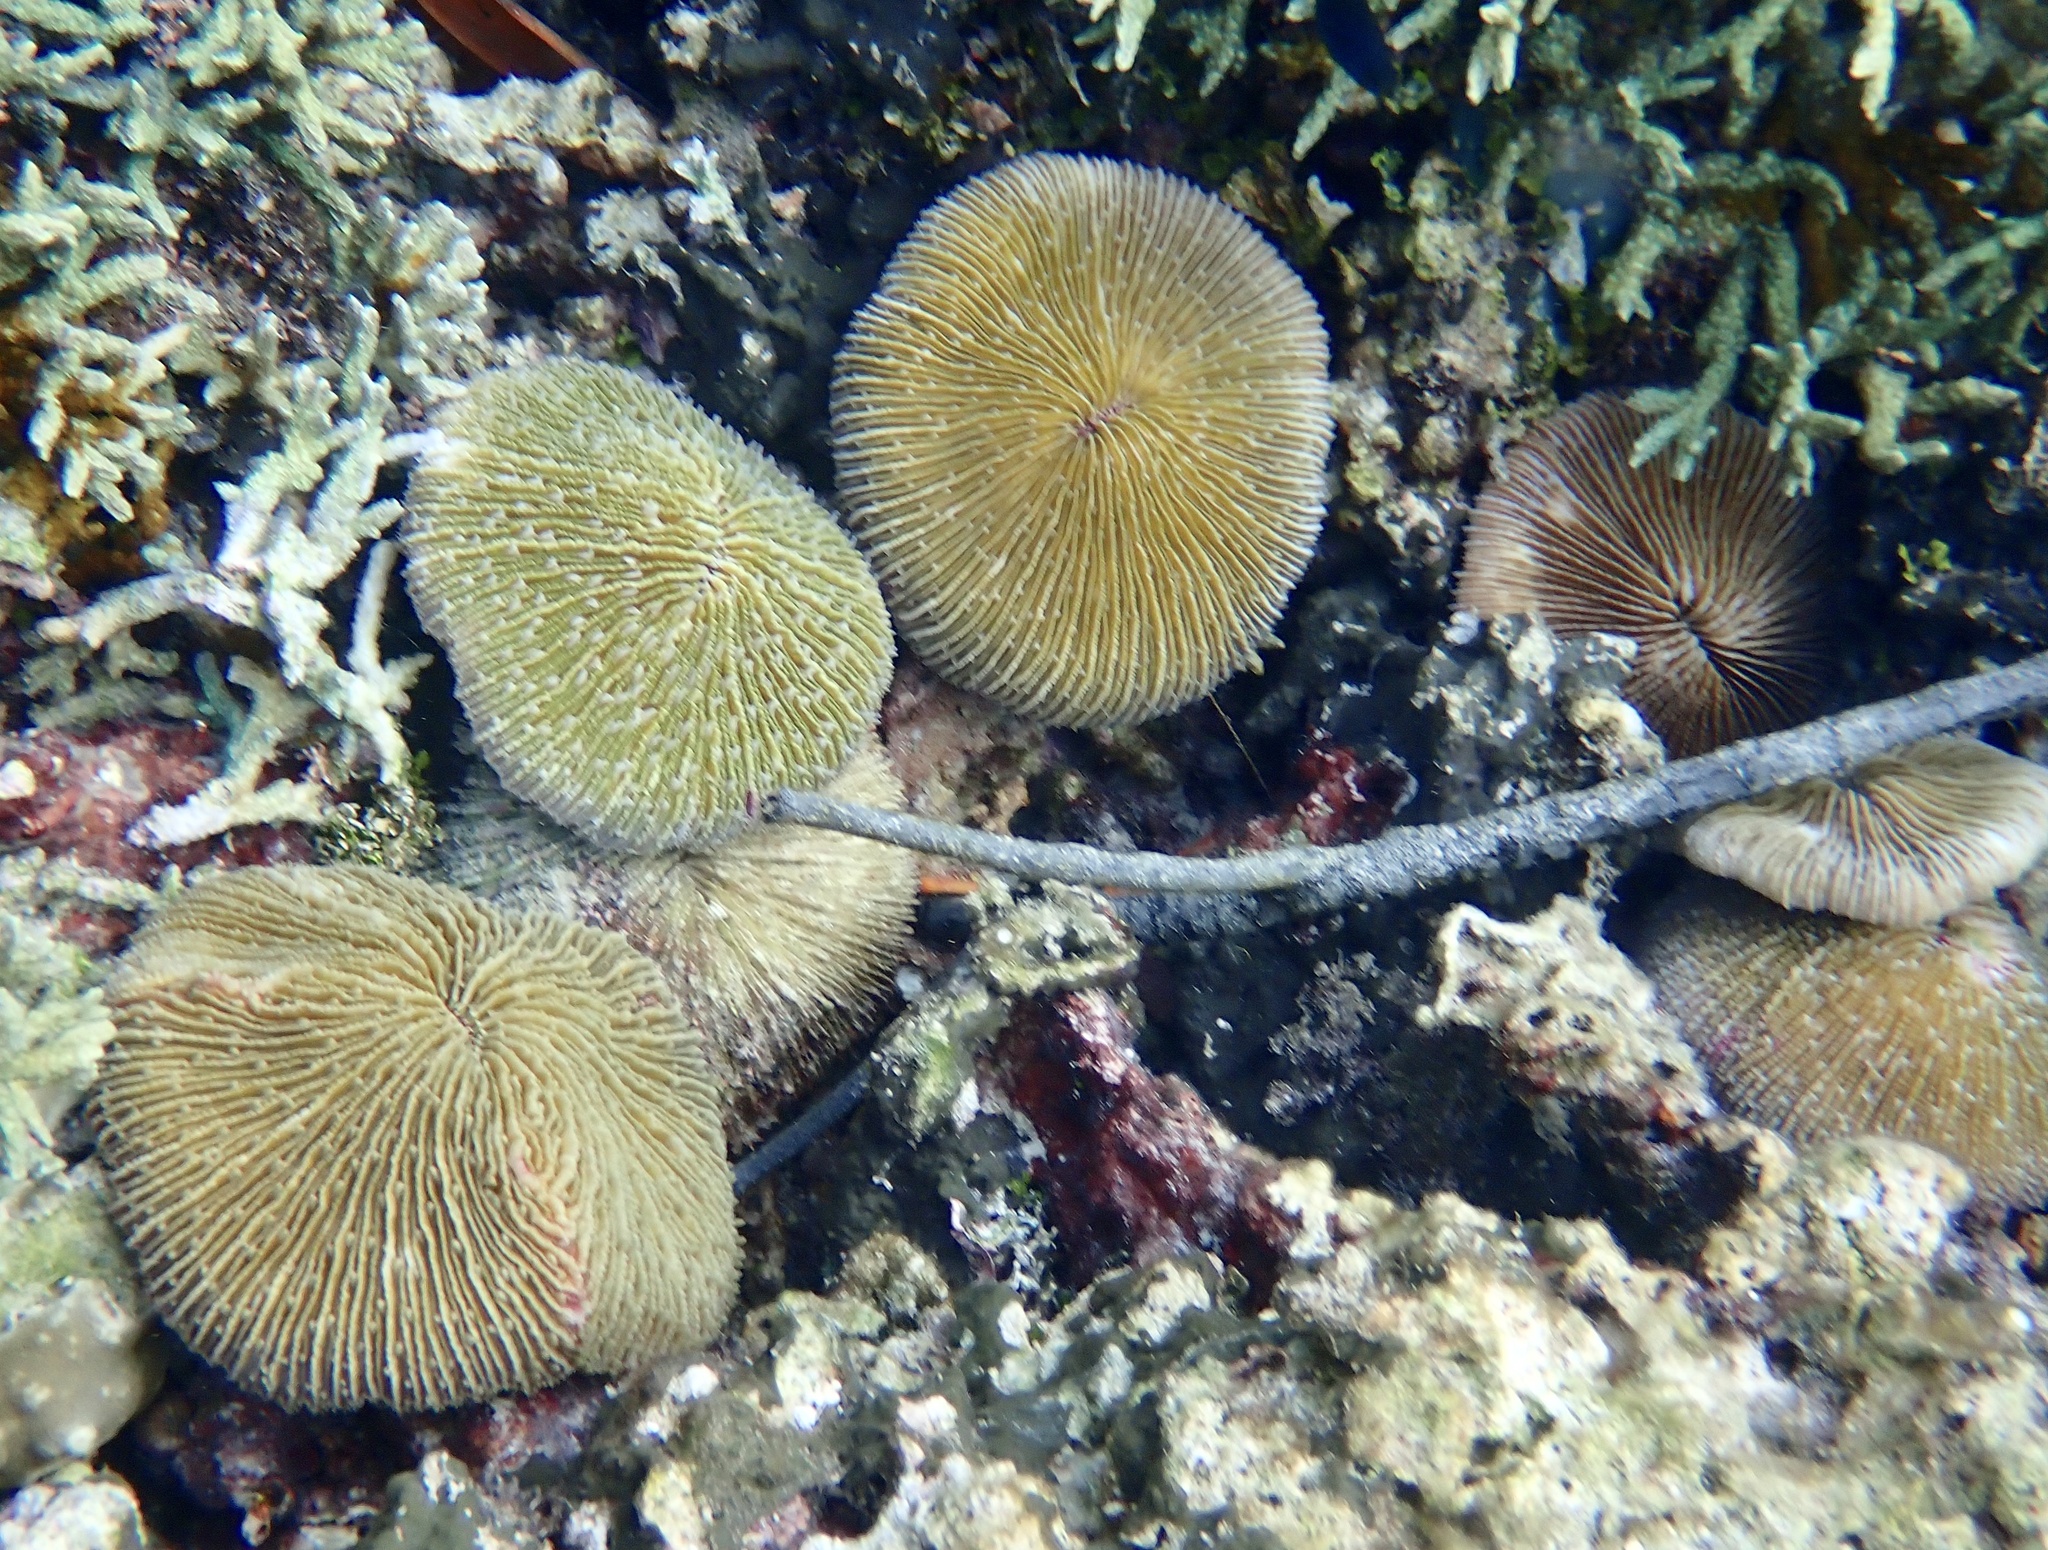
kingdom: Animalia
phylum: Cnidaria
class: Anthozoa
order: Scleractinia
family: Fungiidae
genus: Fungia
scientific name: Fungia fungites
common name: Mushroom coral
